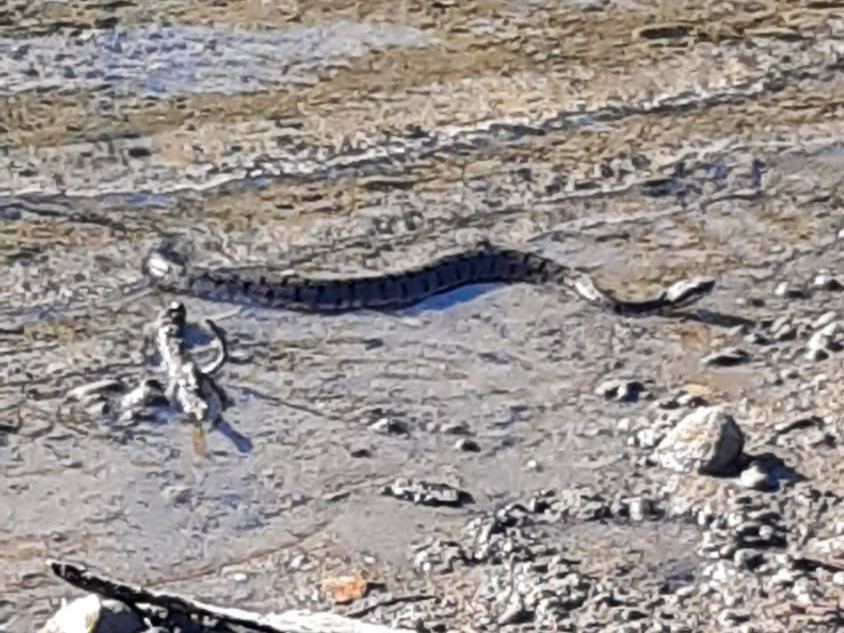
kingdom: Animalia
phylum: Chordata
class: Squamata
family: Viperidae
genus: Vipera
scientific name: Vipera aspis
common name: Asp viper
